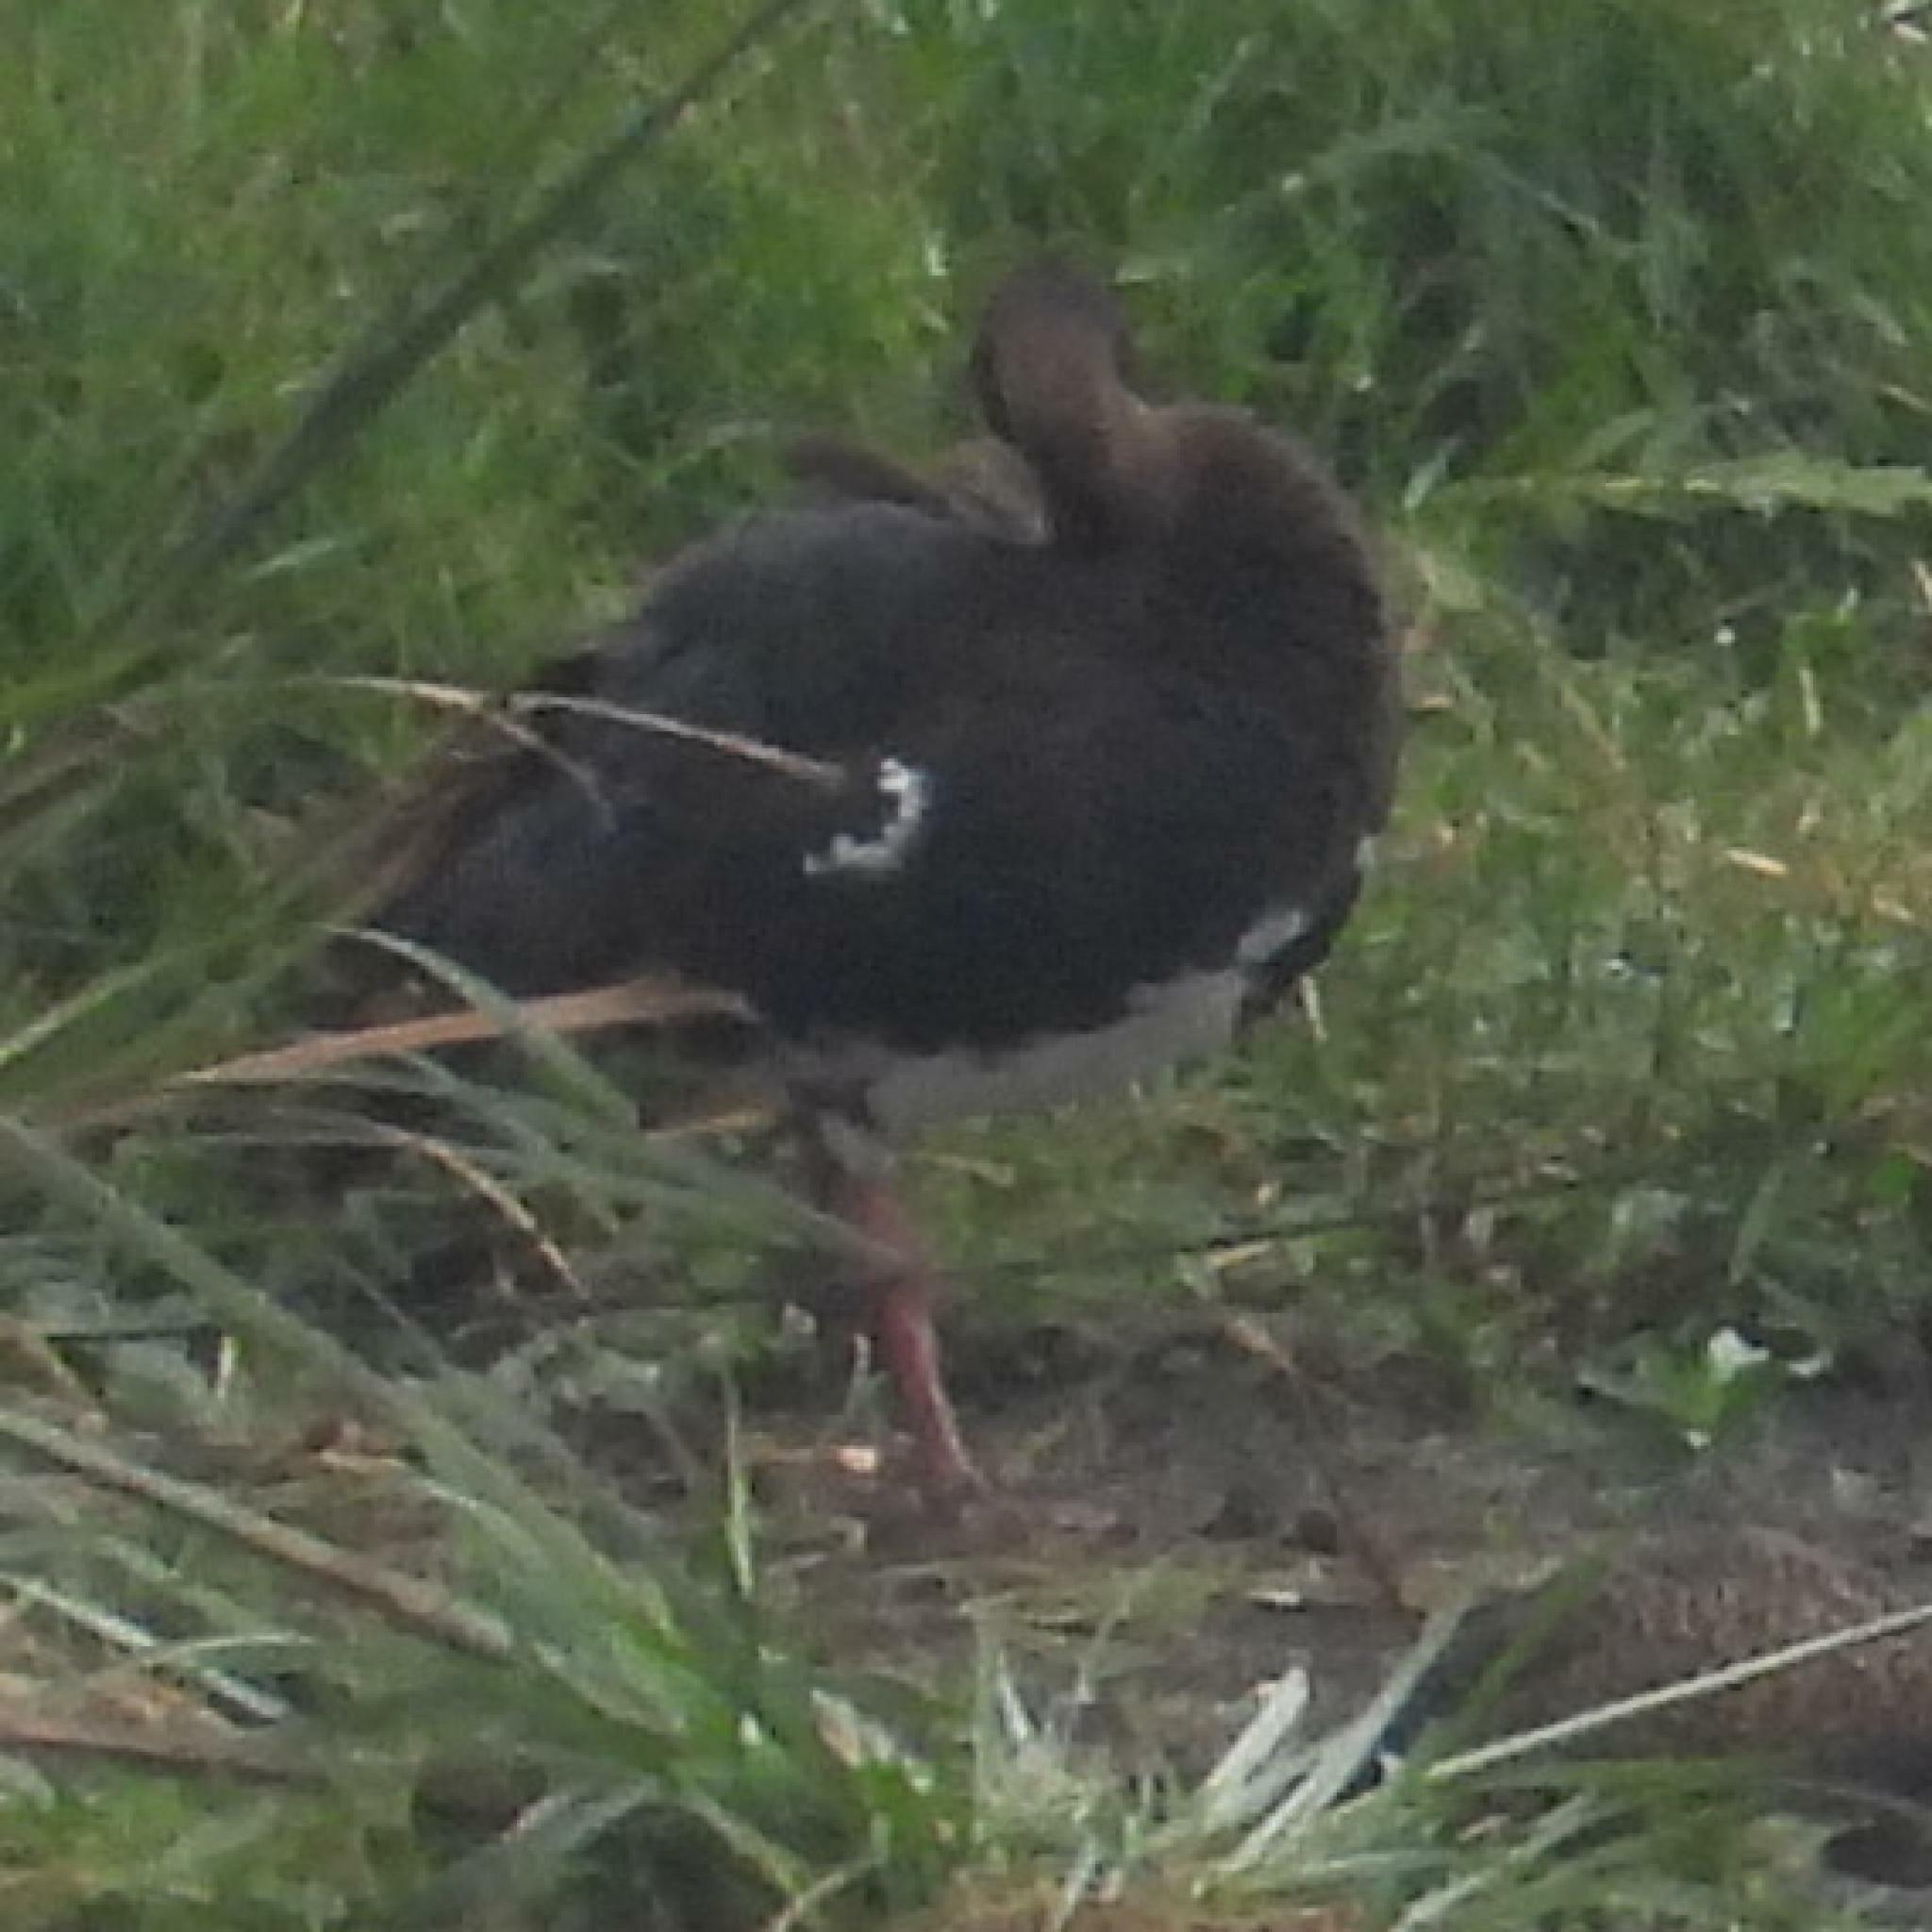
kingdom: Animalia
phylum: Chordata
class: Aves
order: Anseriformes
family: Anatidae
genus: Plectropterus
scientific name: Plectropterus gambensis
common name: Spur-winged goose
